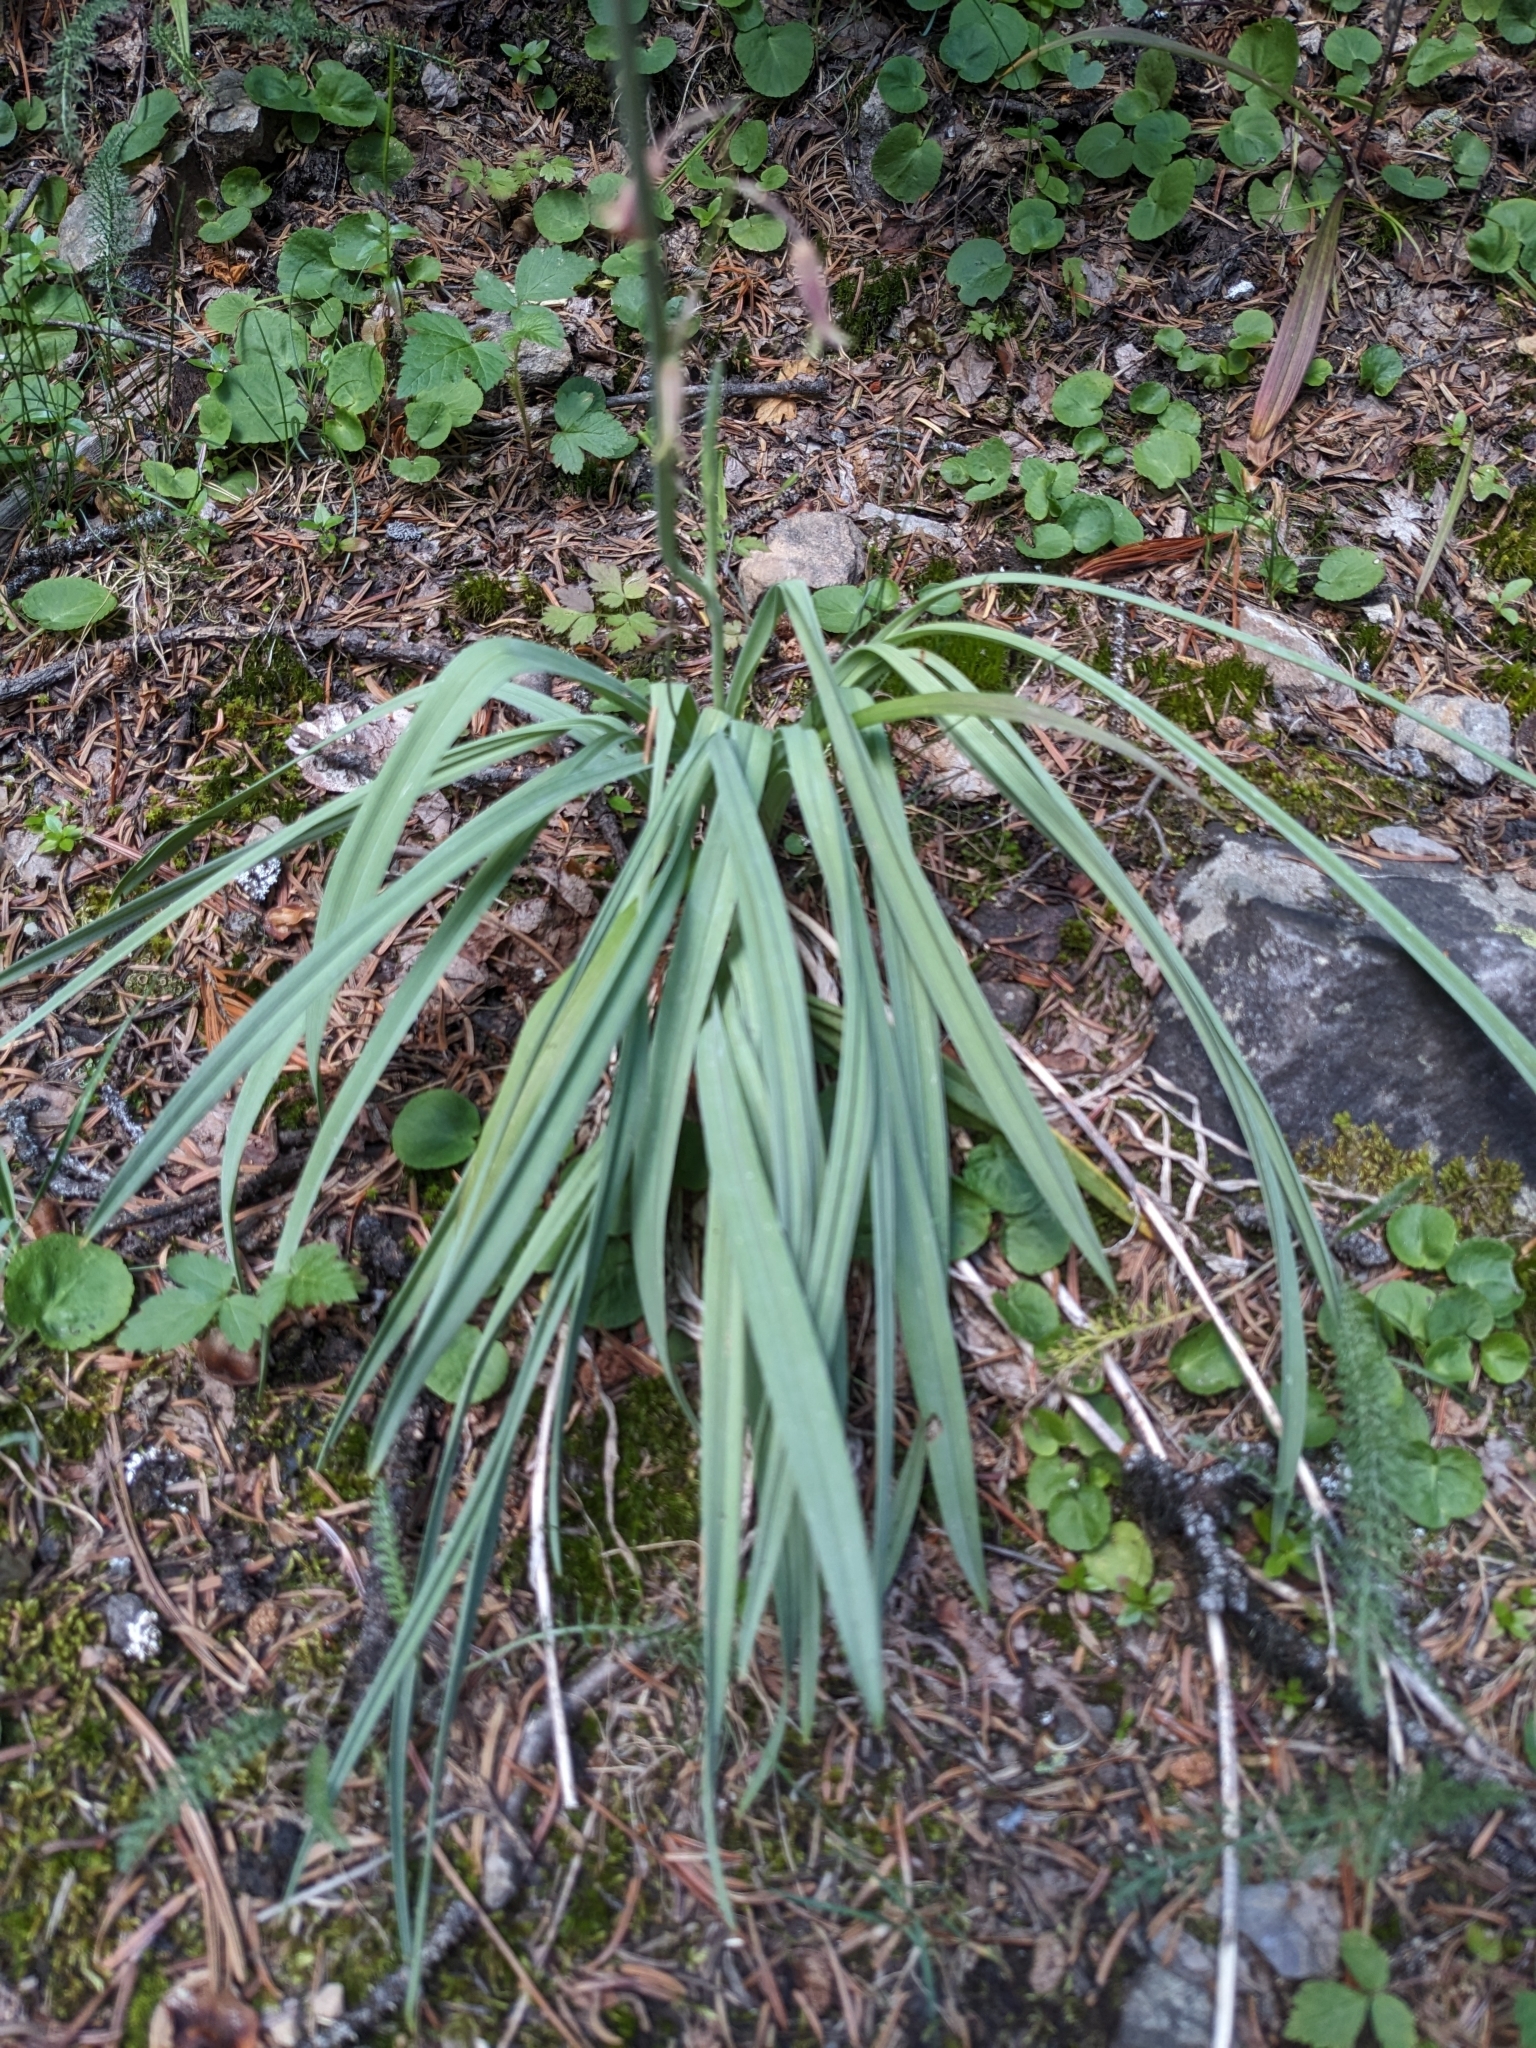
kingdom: Plantae
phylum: Tracheophyta
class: Liliopsida
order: Liliales
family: Melanthiaceae
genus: Anticlea
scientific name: Anticlea elegans
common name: Mountain death camas
